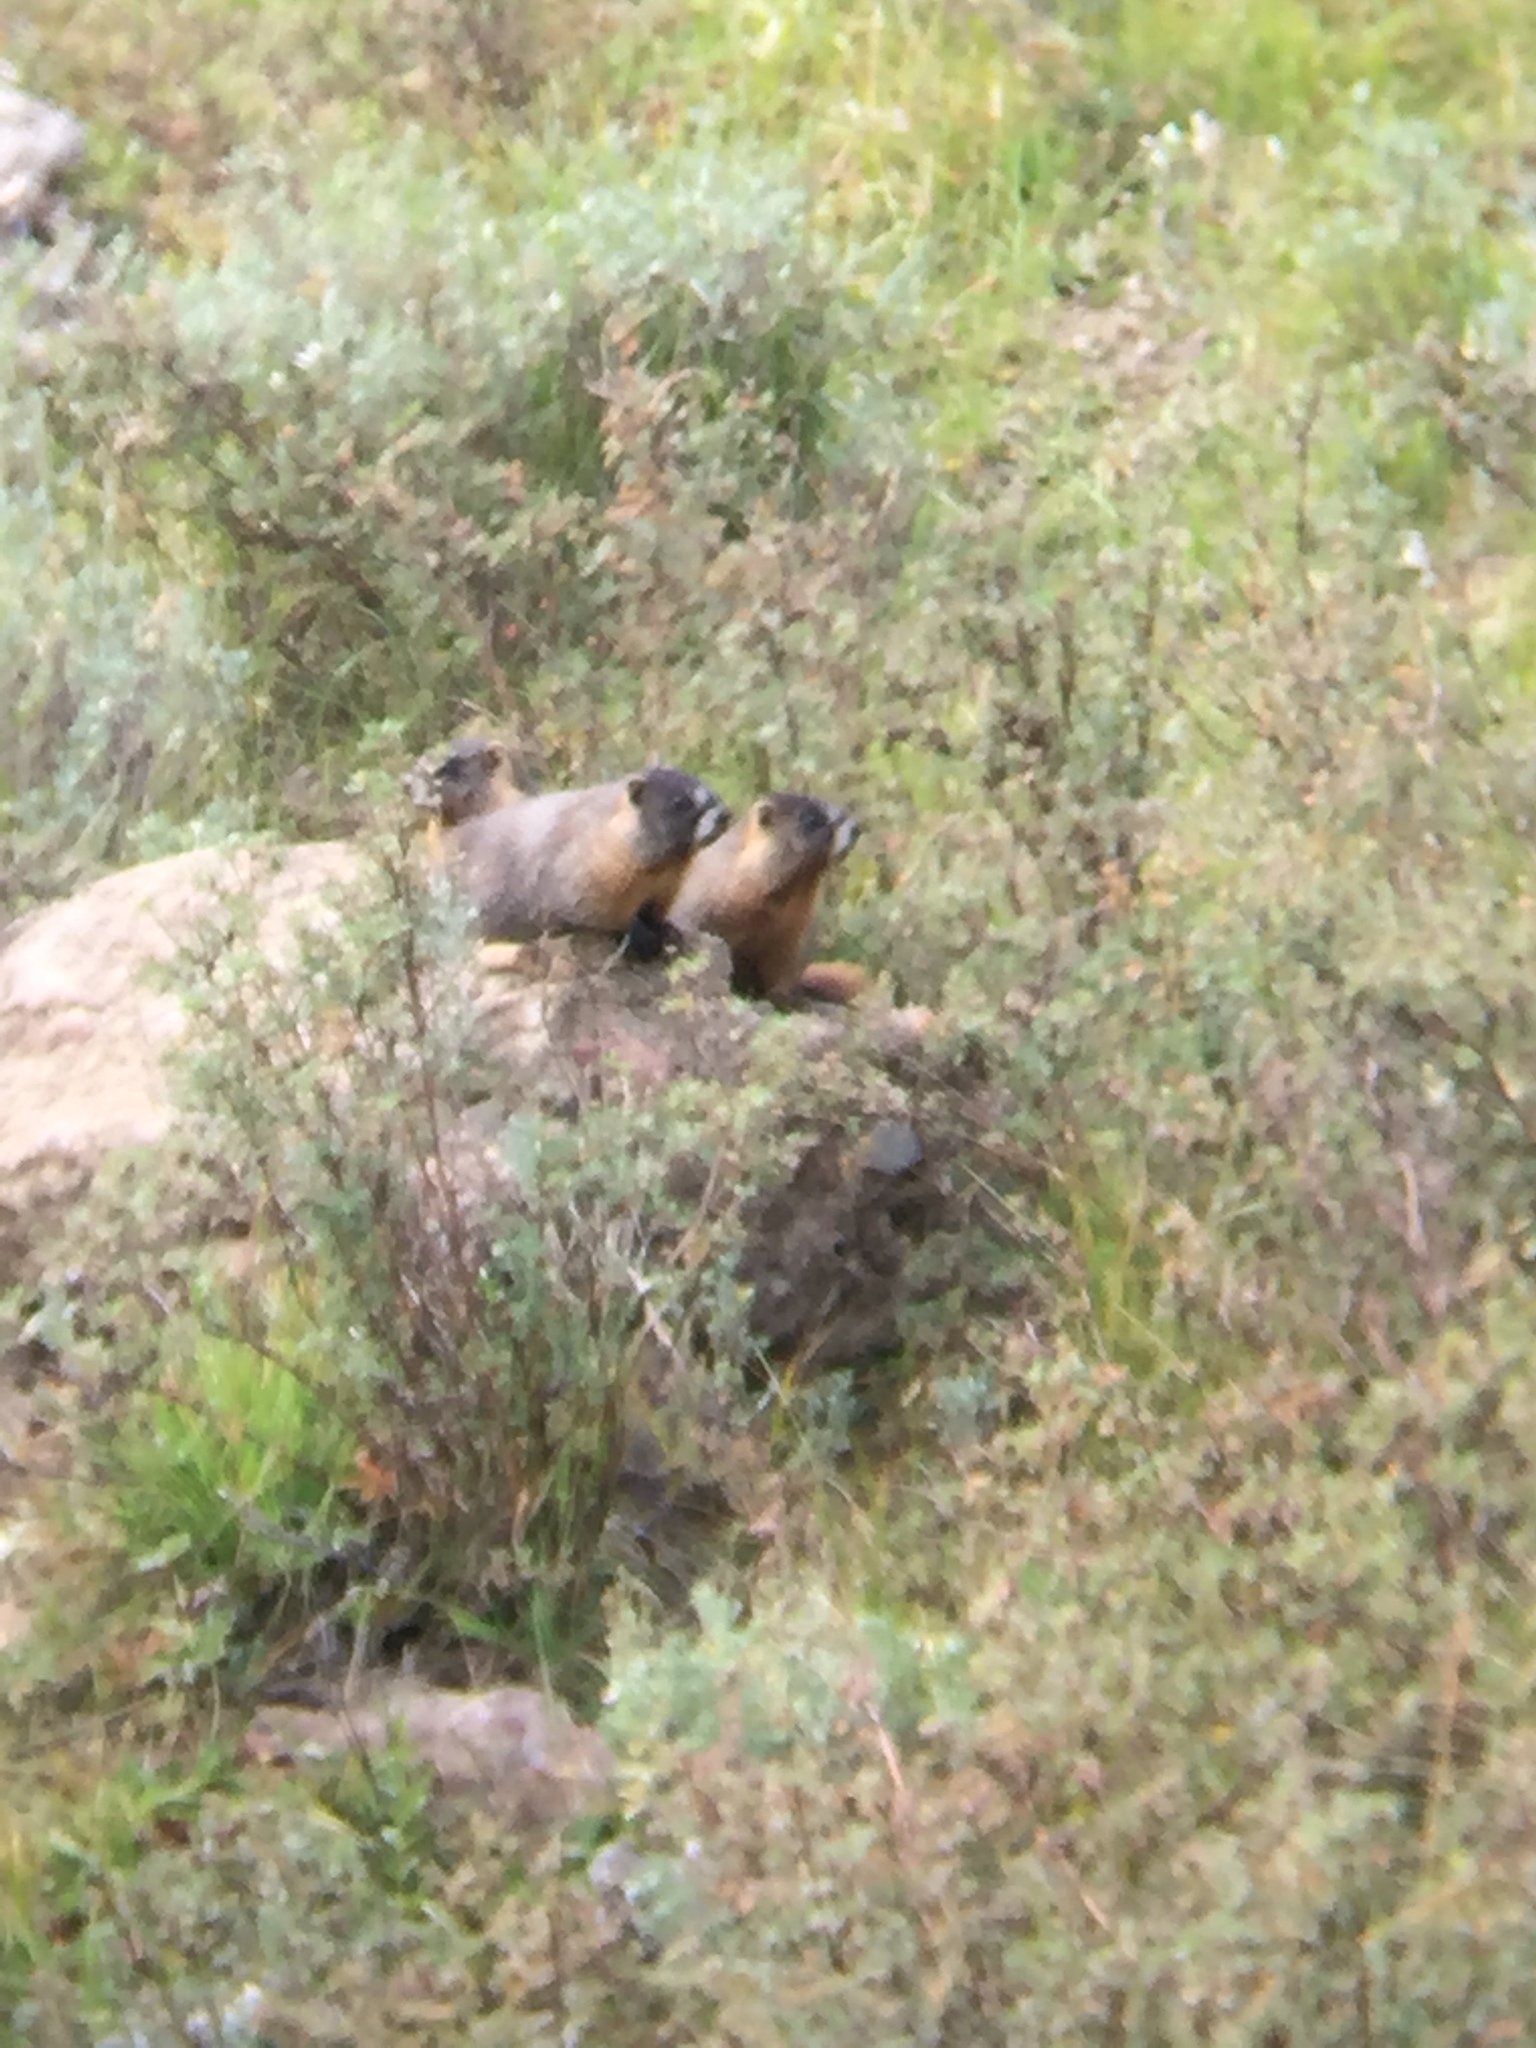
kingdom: Animalia
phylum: Chordata
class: Mammalia
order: Rodentia
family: Sciuridae
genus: Marmota
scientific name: Marmota flaviventris
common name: Yellow-bellied marmot
